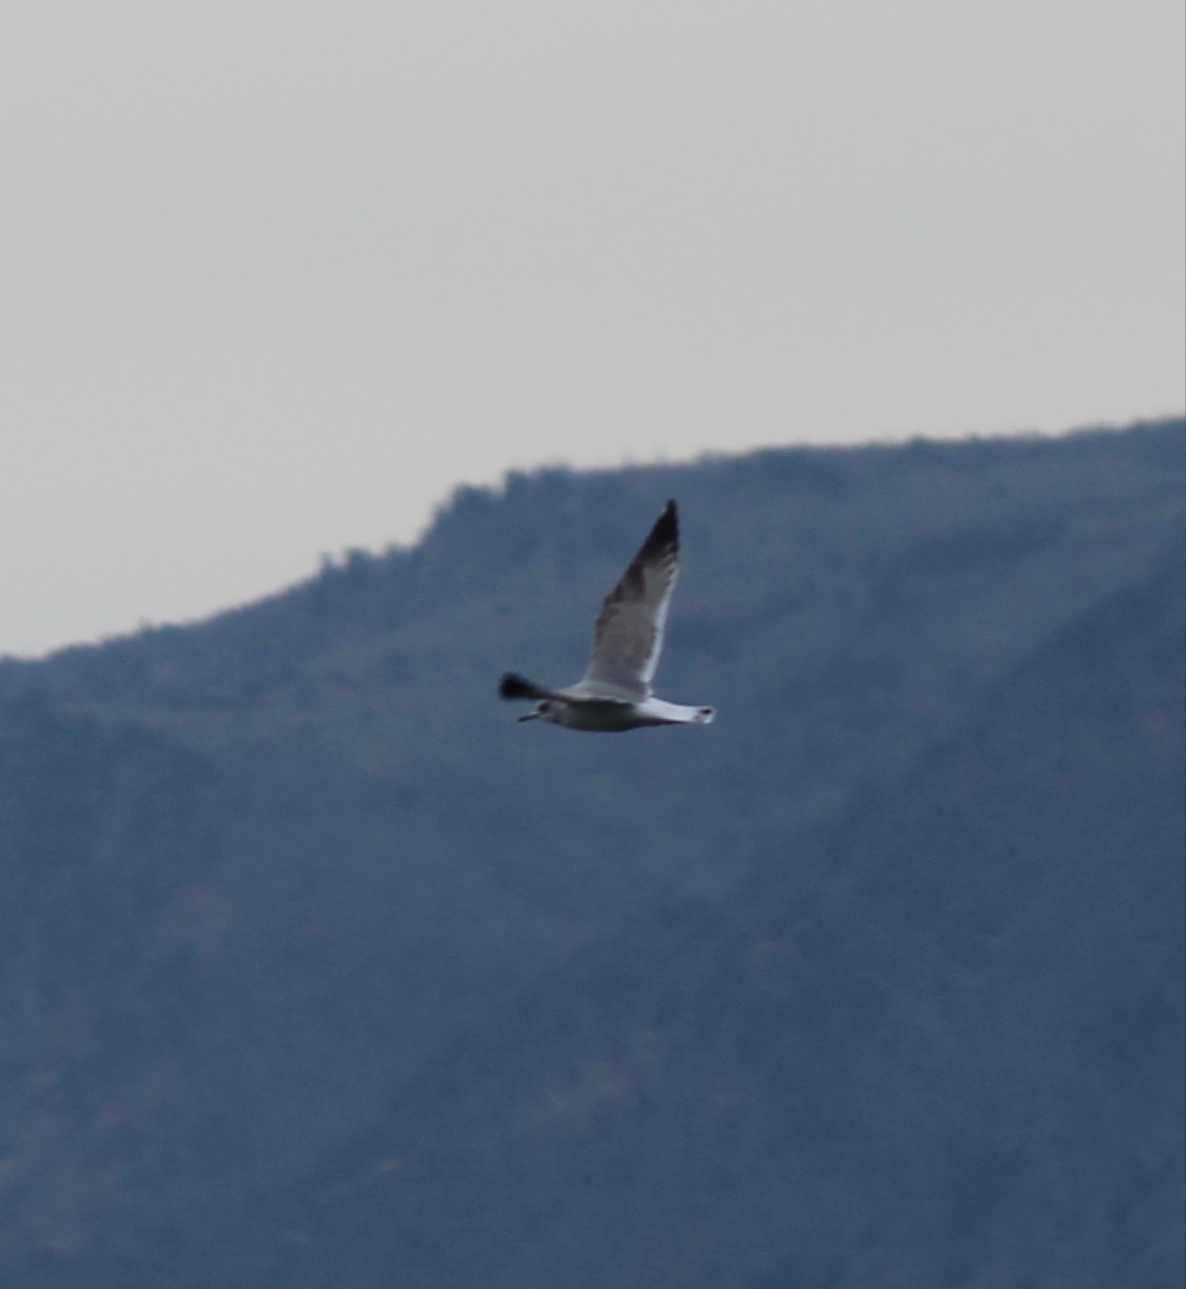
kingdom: Animalia
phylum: Chordata
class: Aves
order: Charadriiformes
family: Laridae
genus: Larus
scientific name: Larus canus
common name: Mew gull
